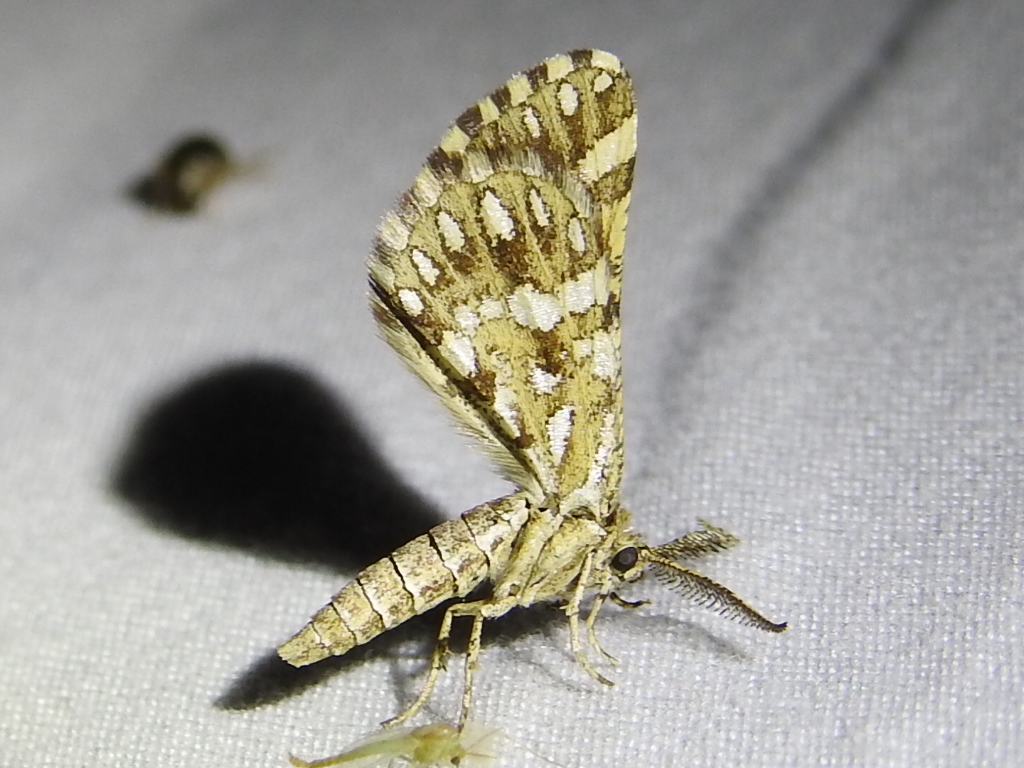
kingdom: Animalia
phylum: Arthropoda
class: Insecta
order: Lepidoptera
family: Geometridae
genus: Narraga
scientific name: Narraga fimetaria
